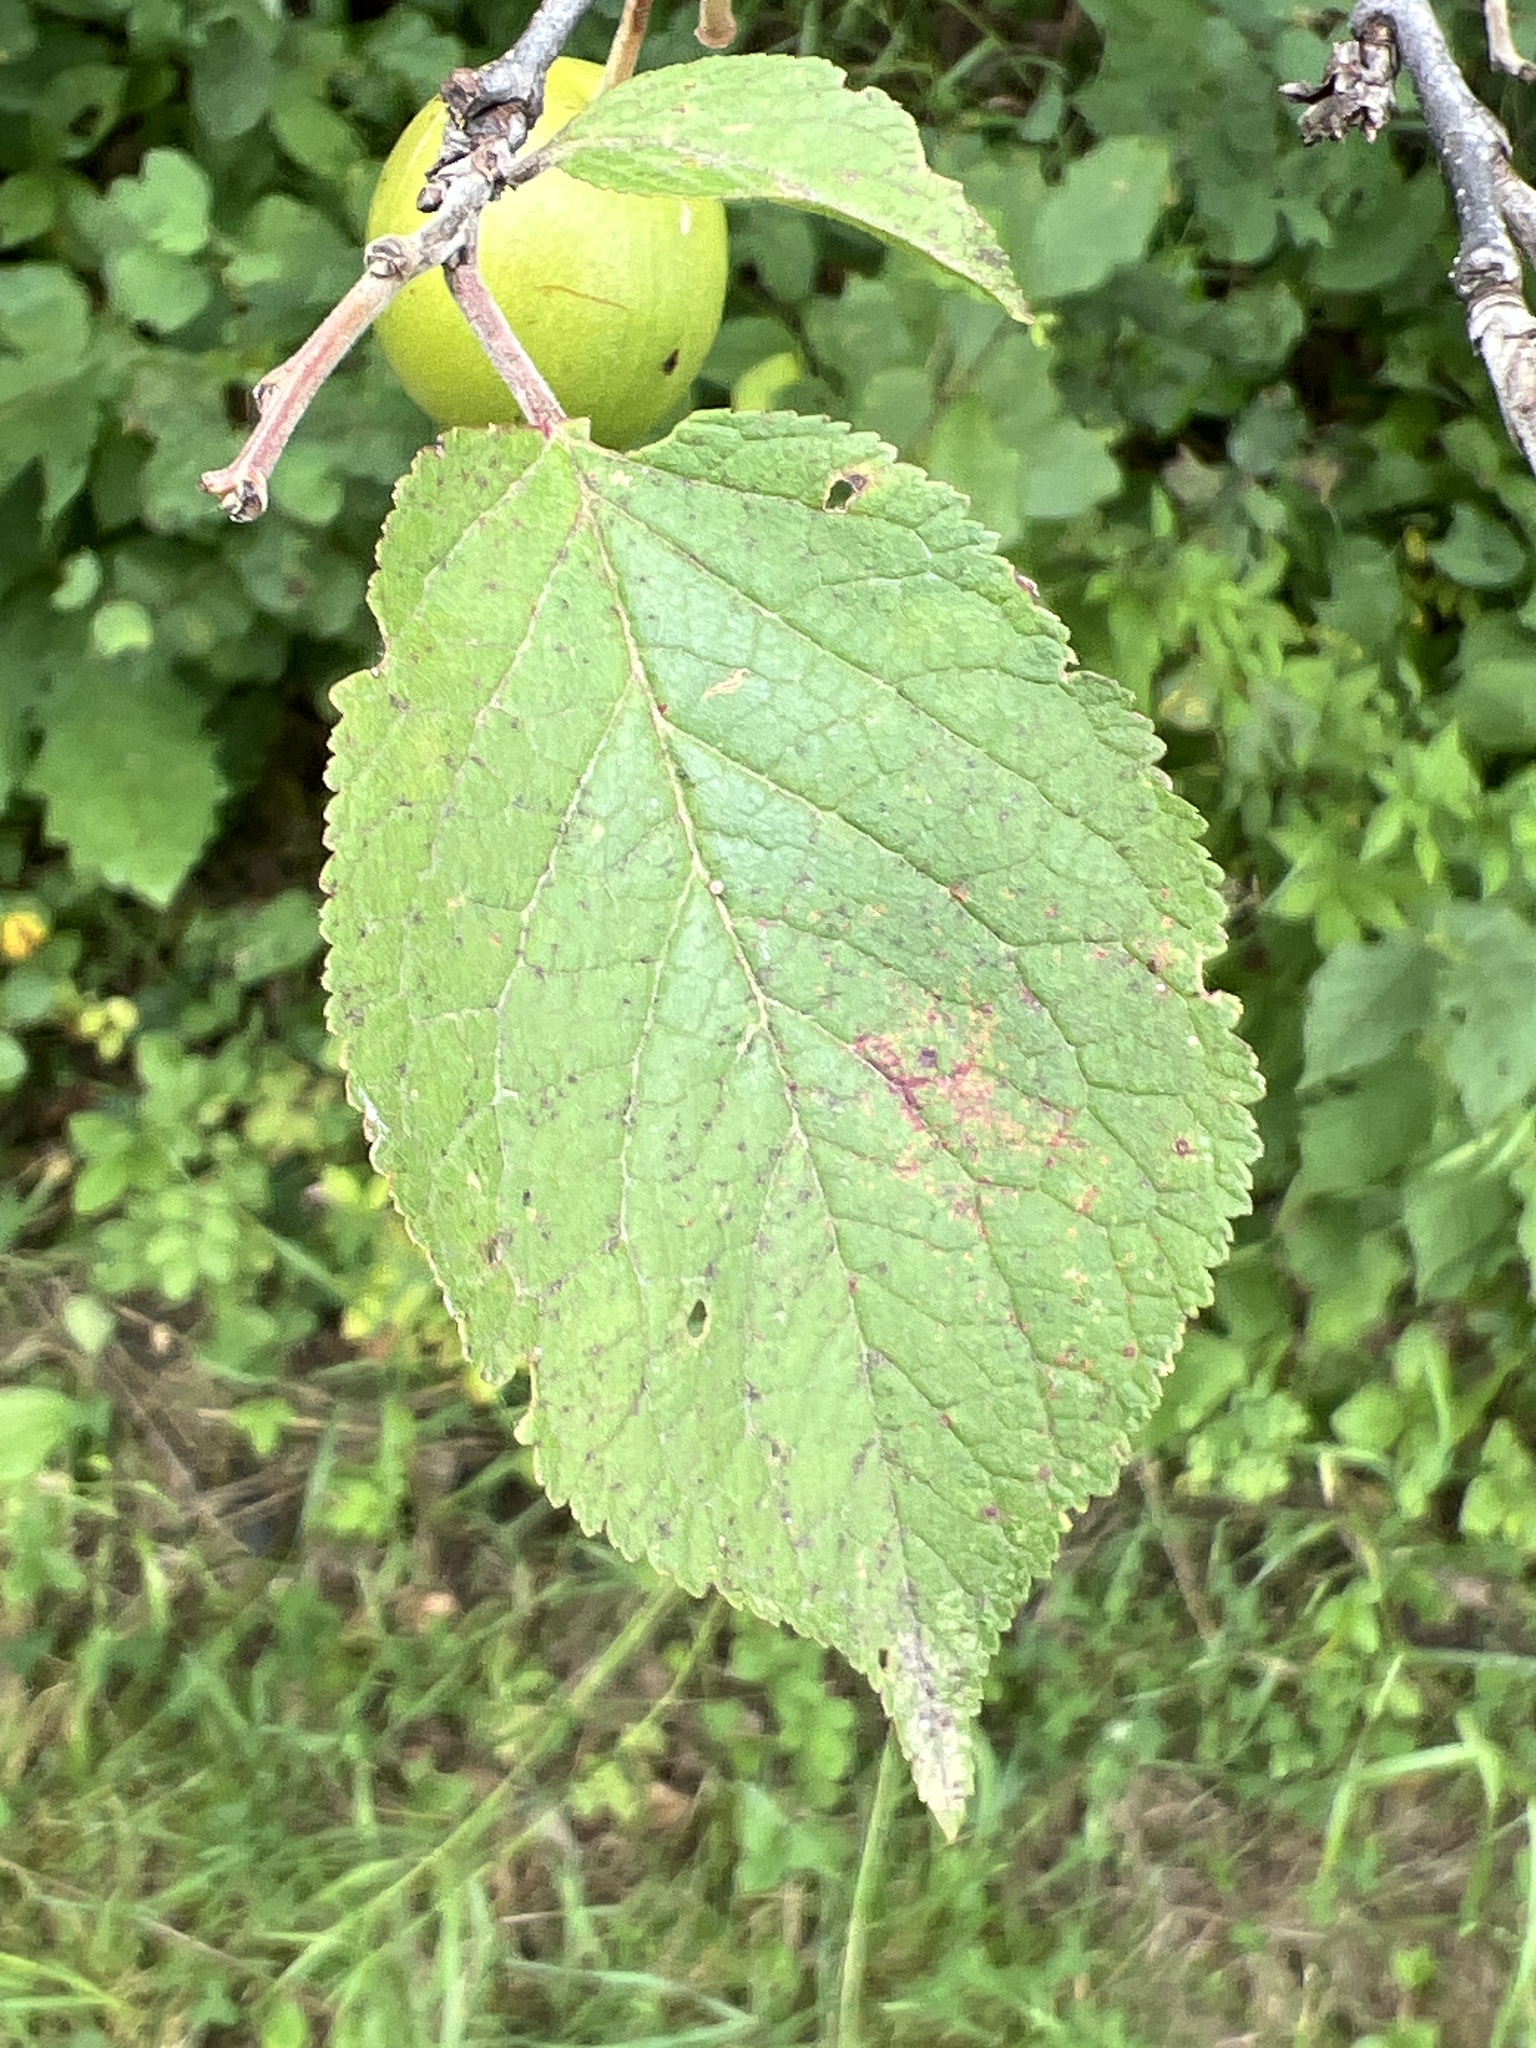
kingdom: Plantae
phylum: Tracheophyta
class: Magnoliopsida
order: Rosales
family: Rosaceae
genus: Prunus
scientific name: Prunus nigra
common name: Black plum
